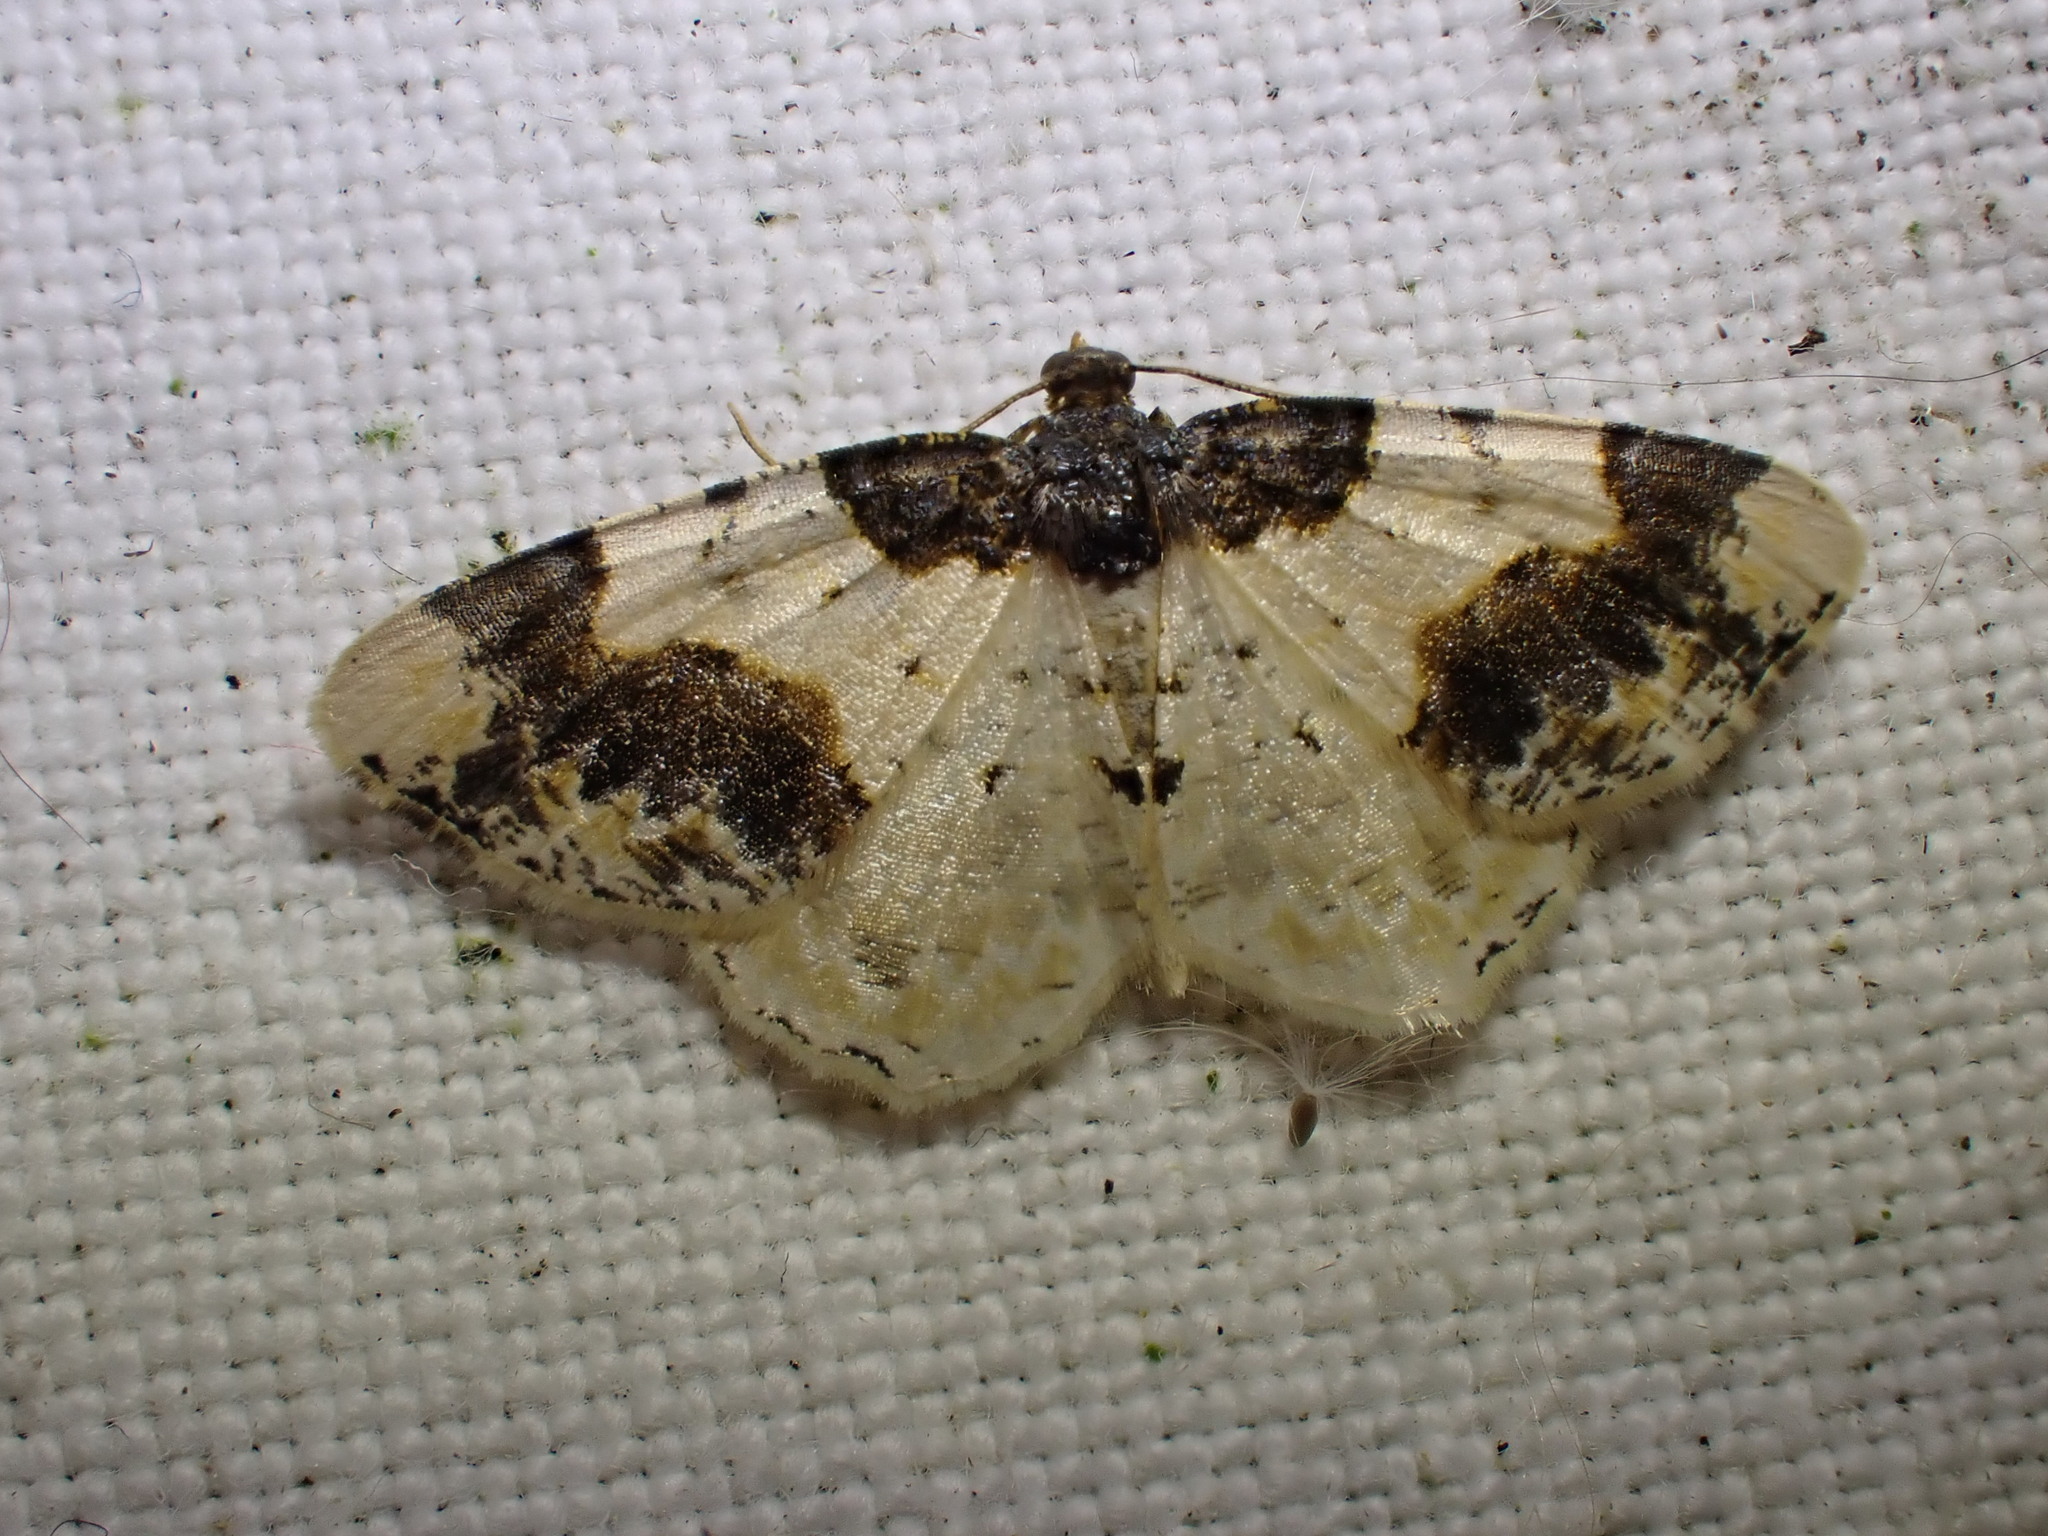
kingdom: Animalia
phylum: Arthropoda
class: Insecta
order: Lepidoptera
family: Geometridae
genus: Ligdia
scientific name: Ligdia adustata
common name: Scorched carpet
